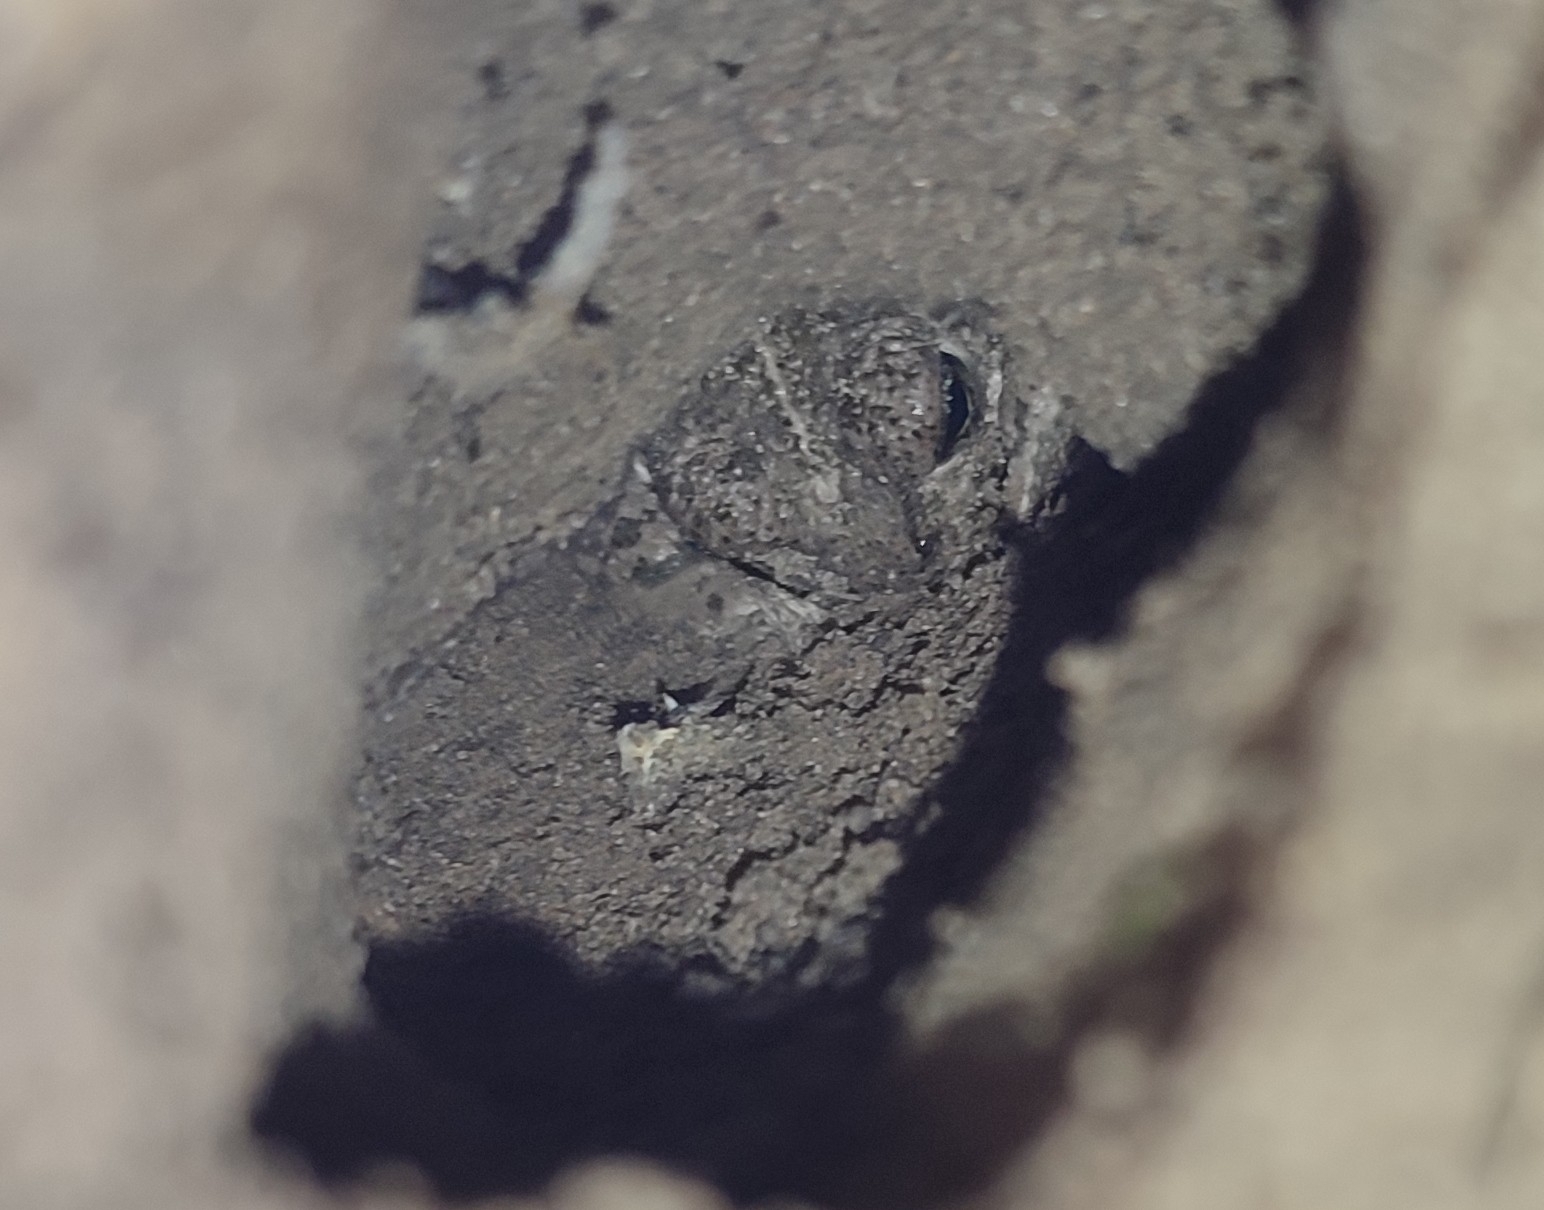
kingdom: Animalia
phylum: Chordata
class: Amphibia
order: Anura
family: Bufonidae
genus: Epidalea
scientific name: Epidalea calamita
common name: Natterjack toad
